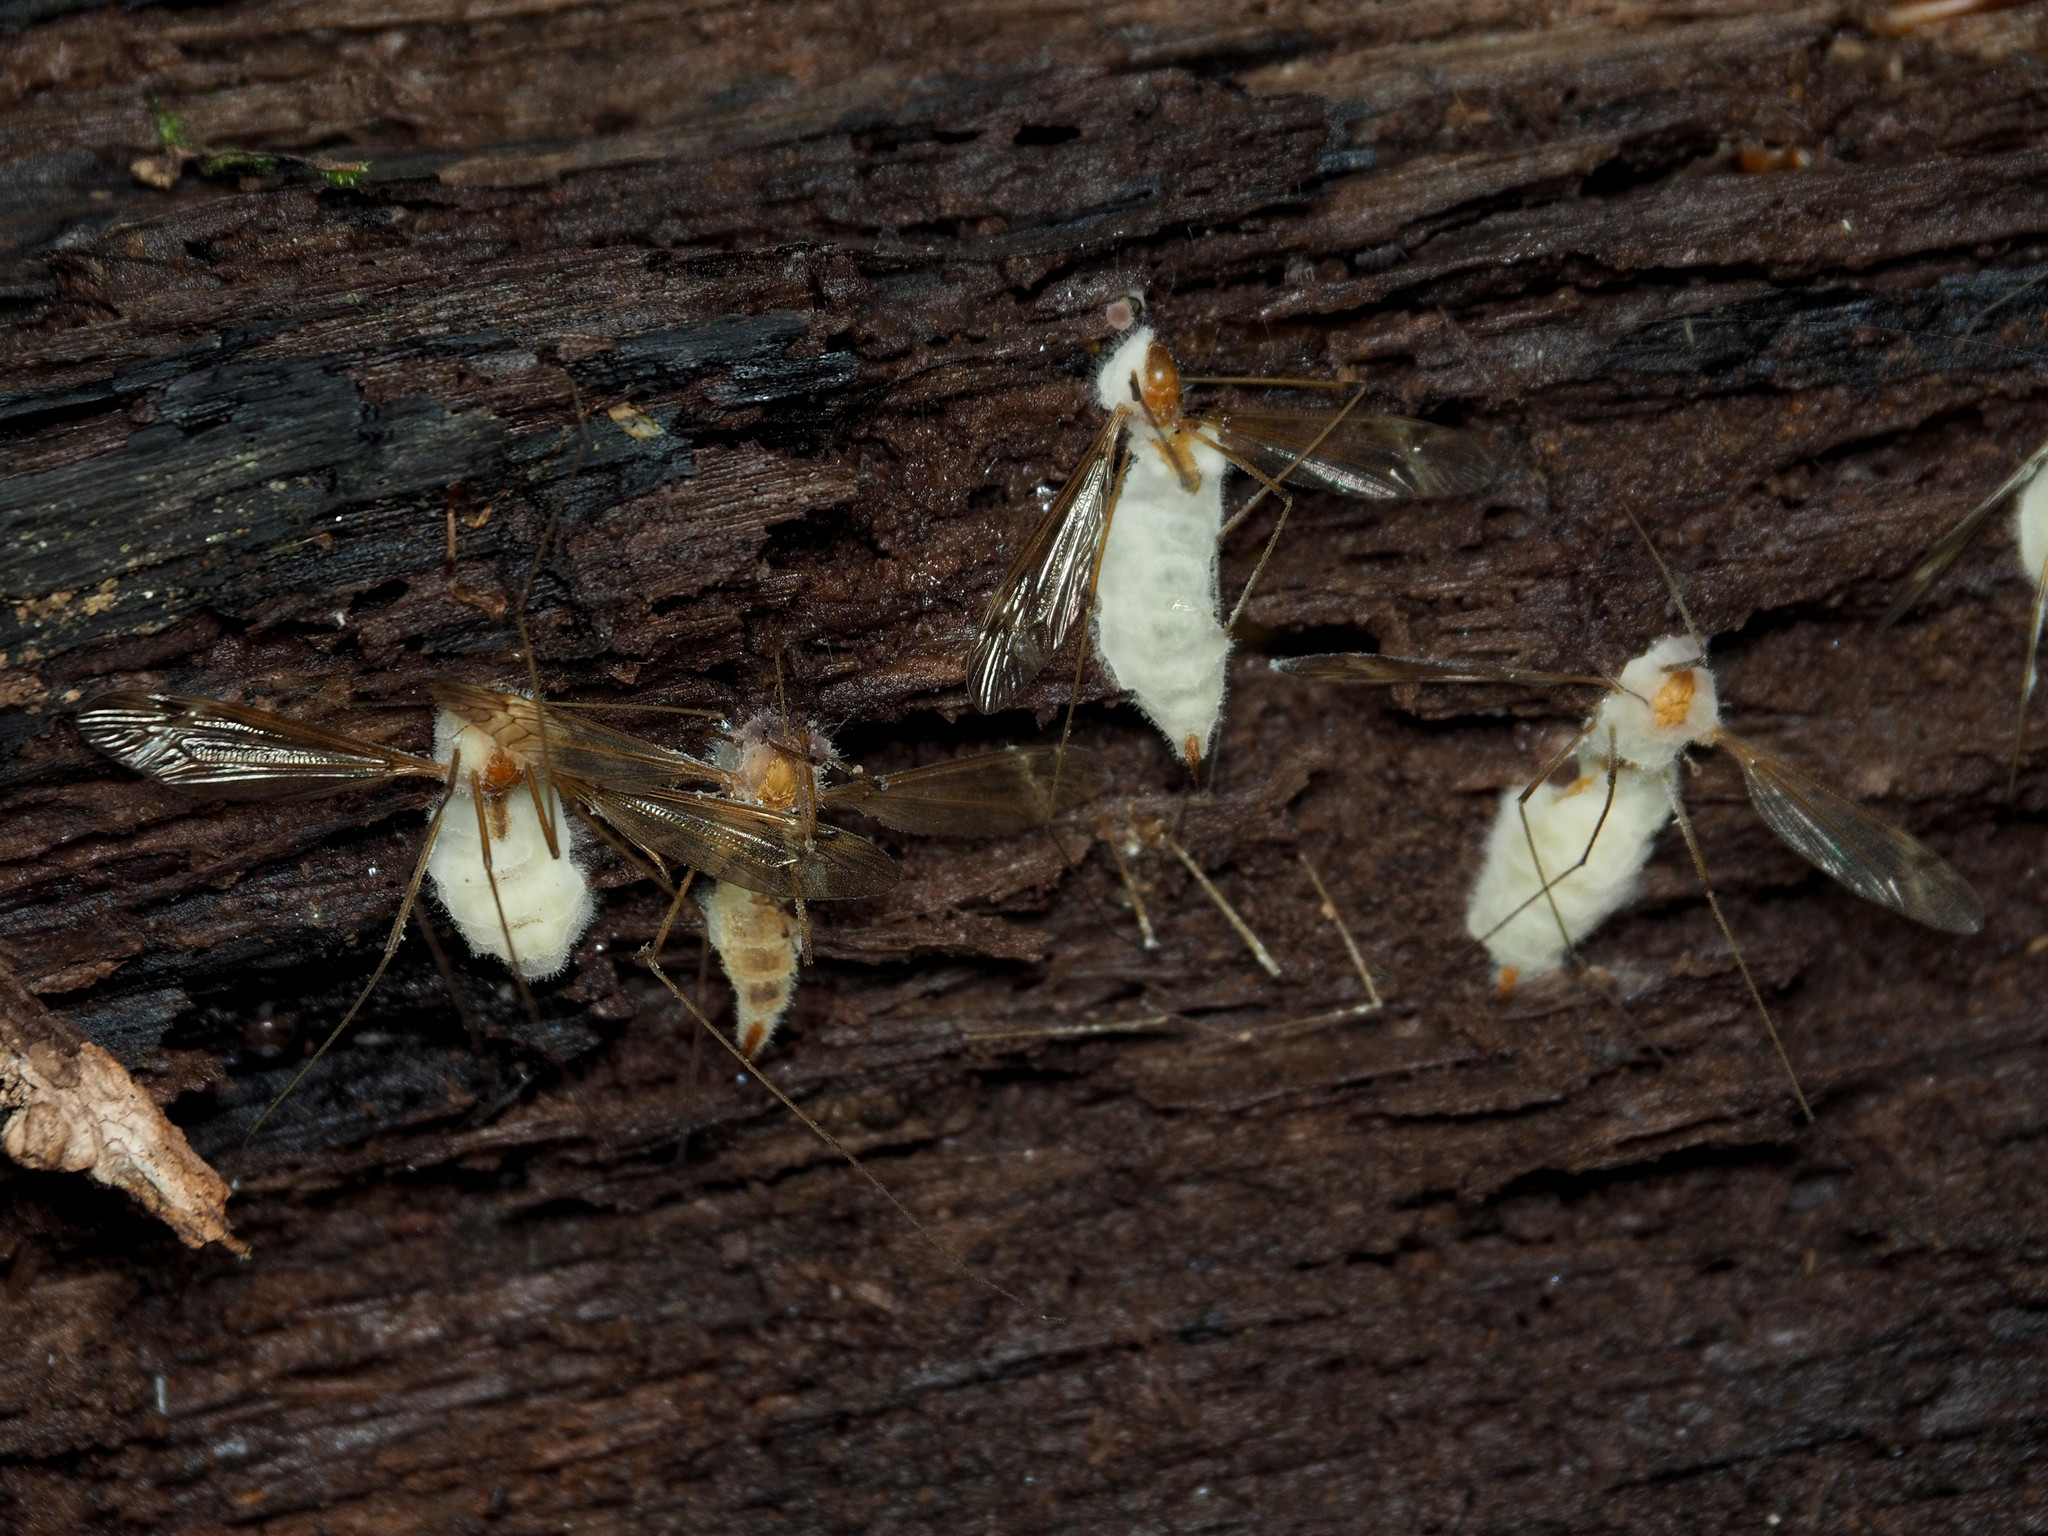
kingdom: Fungi
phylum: Entomophthoromycota
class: Entomophthoromycetes
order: Entomophthorales
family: Entomophthoraceae
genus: Erynia
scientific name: Erynia sepulchralis
